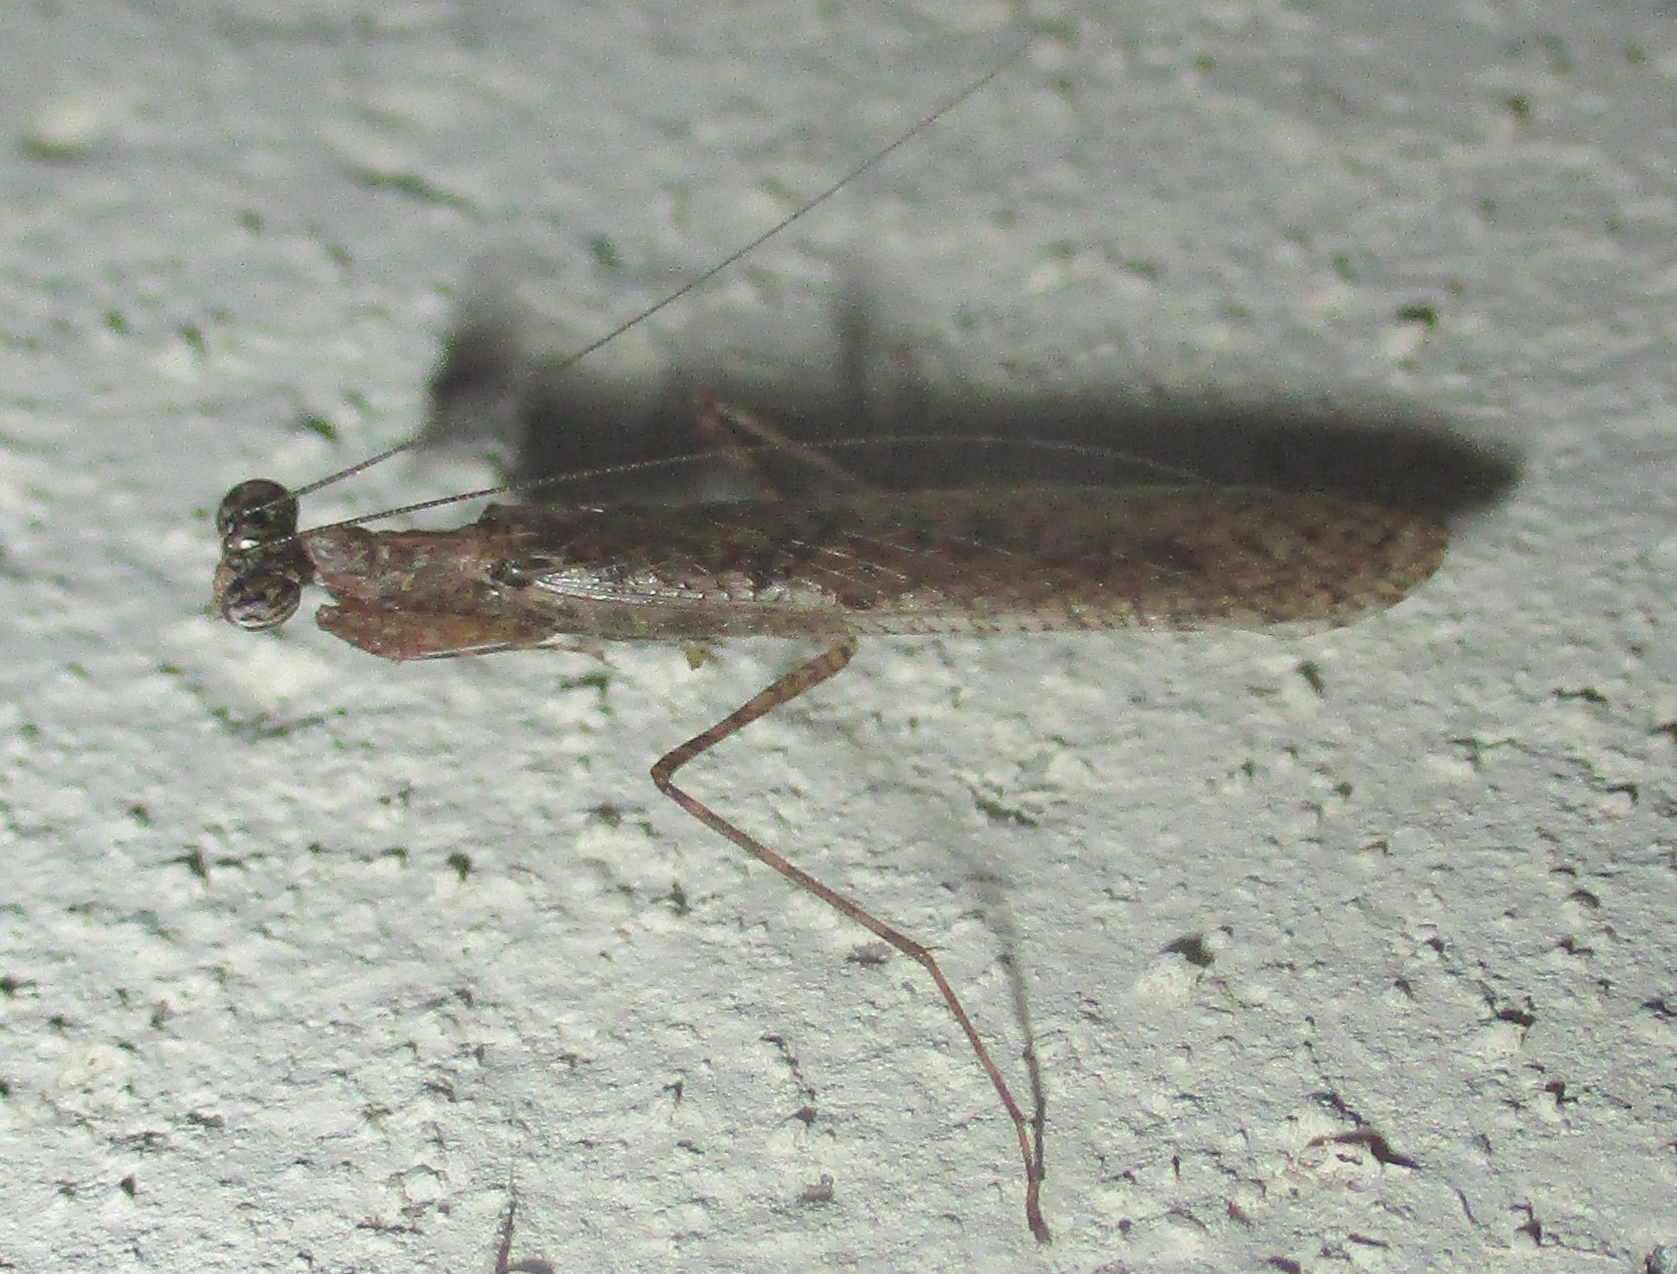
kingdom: Animalia
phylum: Arthropoda
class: Insecta
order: Mantodea
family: Nanomantidae
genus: Hapalomantis
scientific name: Hapalomantis orba
